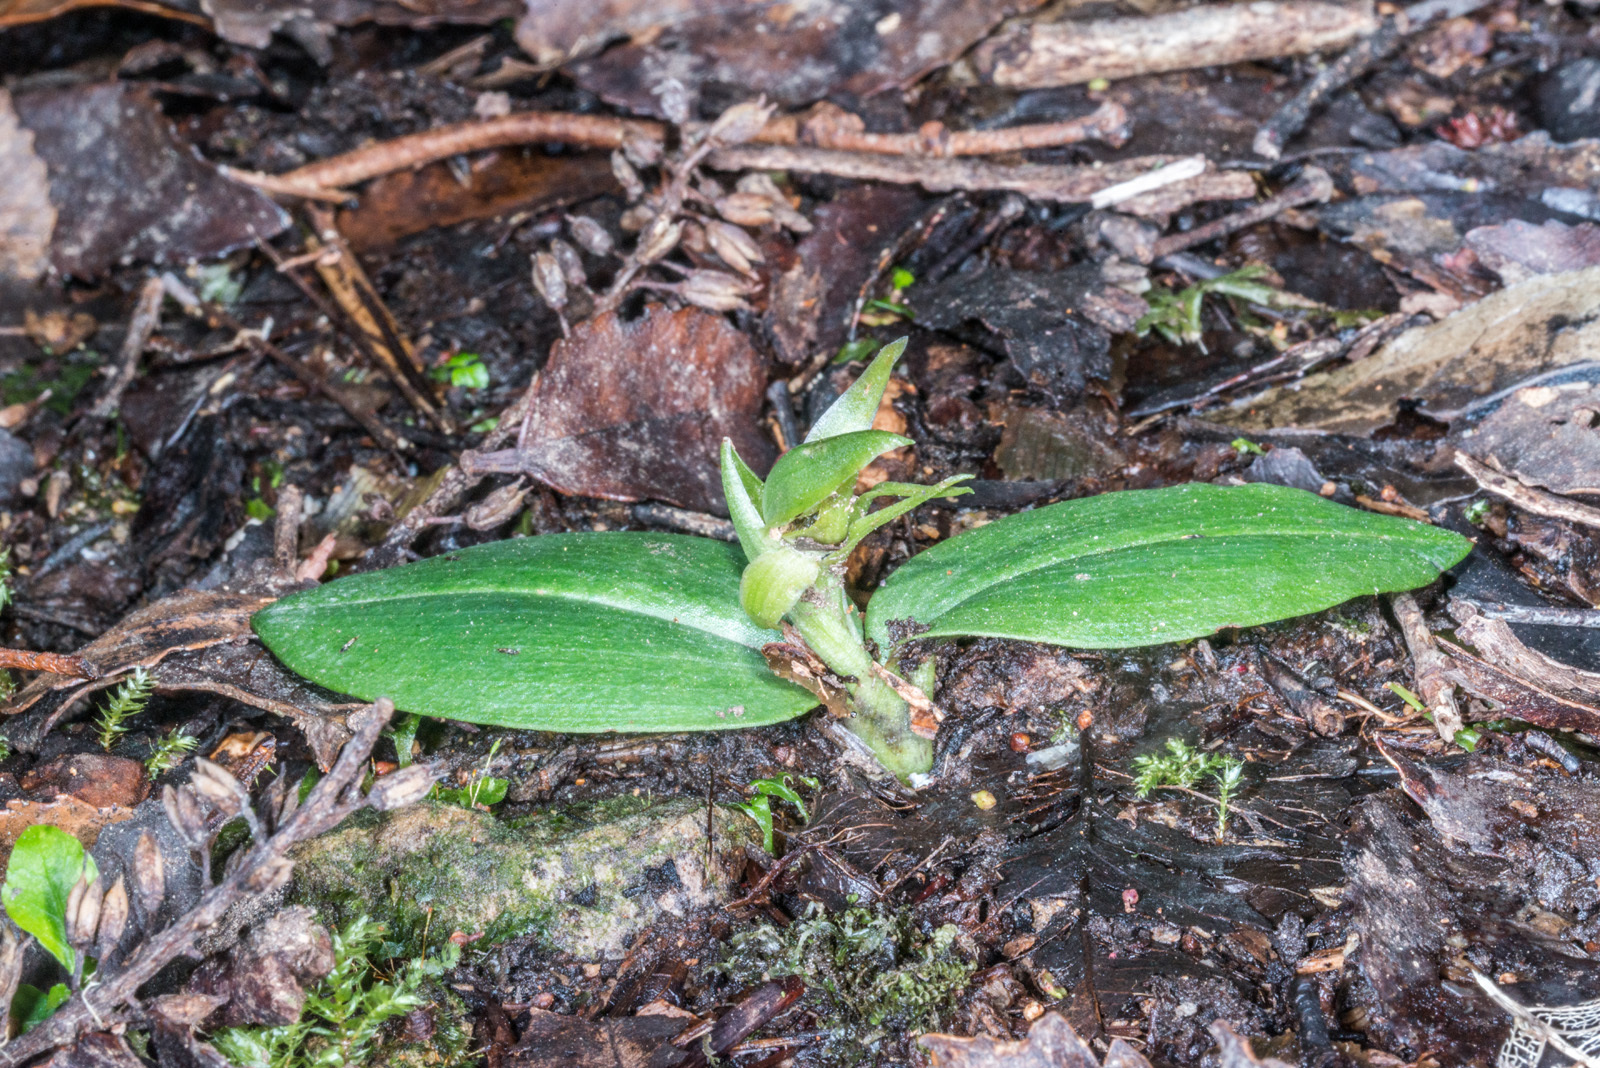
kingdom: Plantae
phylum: Tracheophyta
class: Liliopsida
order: Asparagales
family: Orchidaceae
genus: Chiloglottis
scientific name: Chiloglottis cornuta
